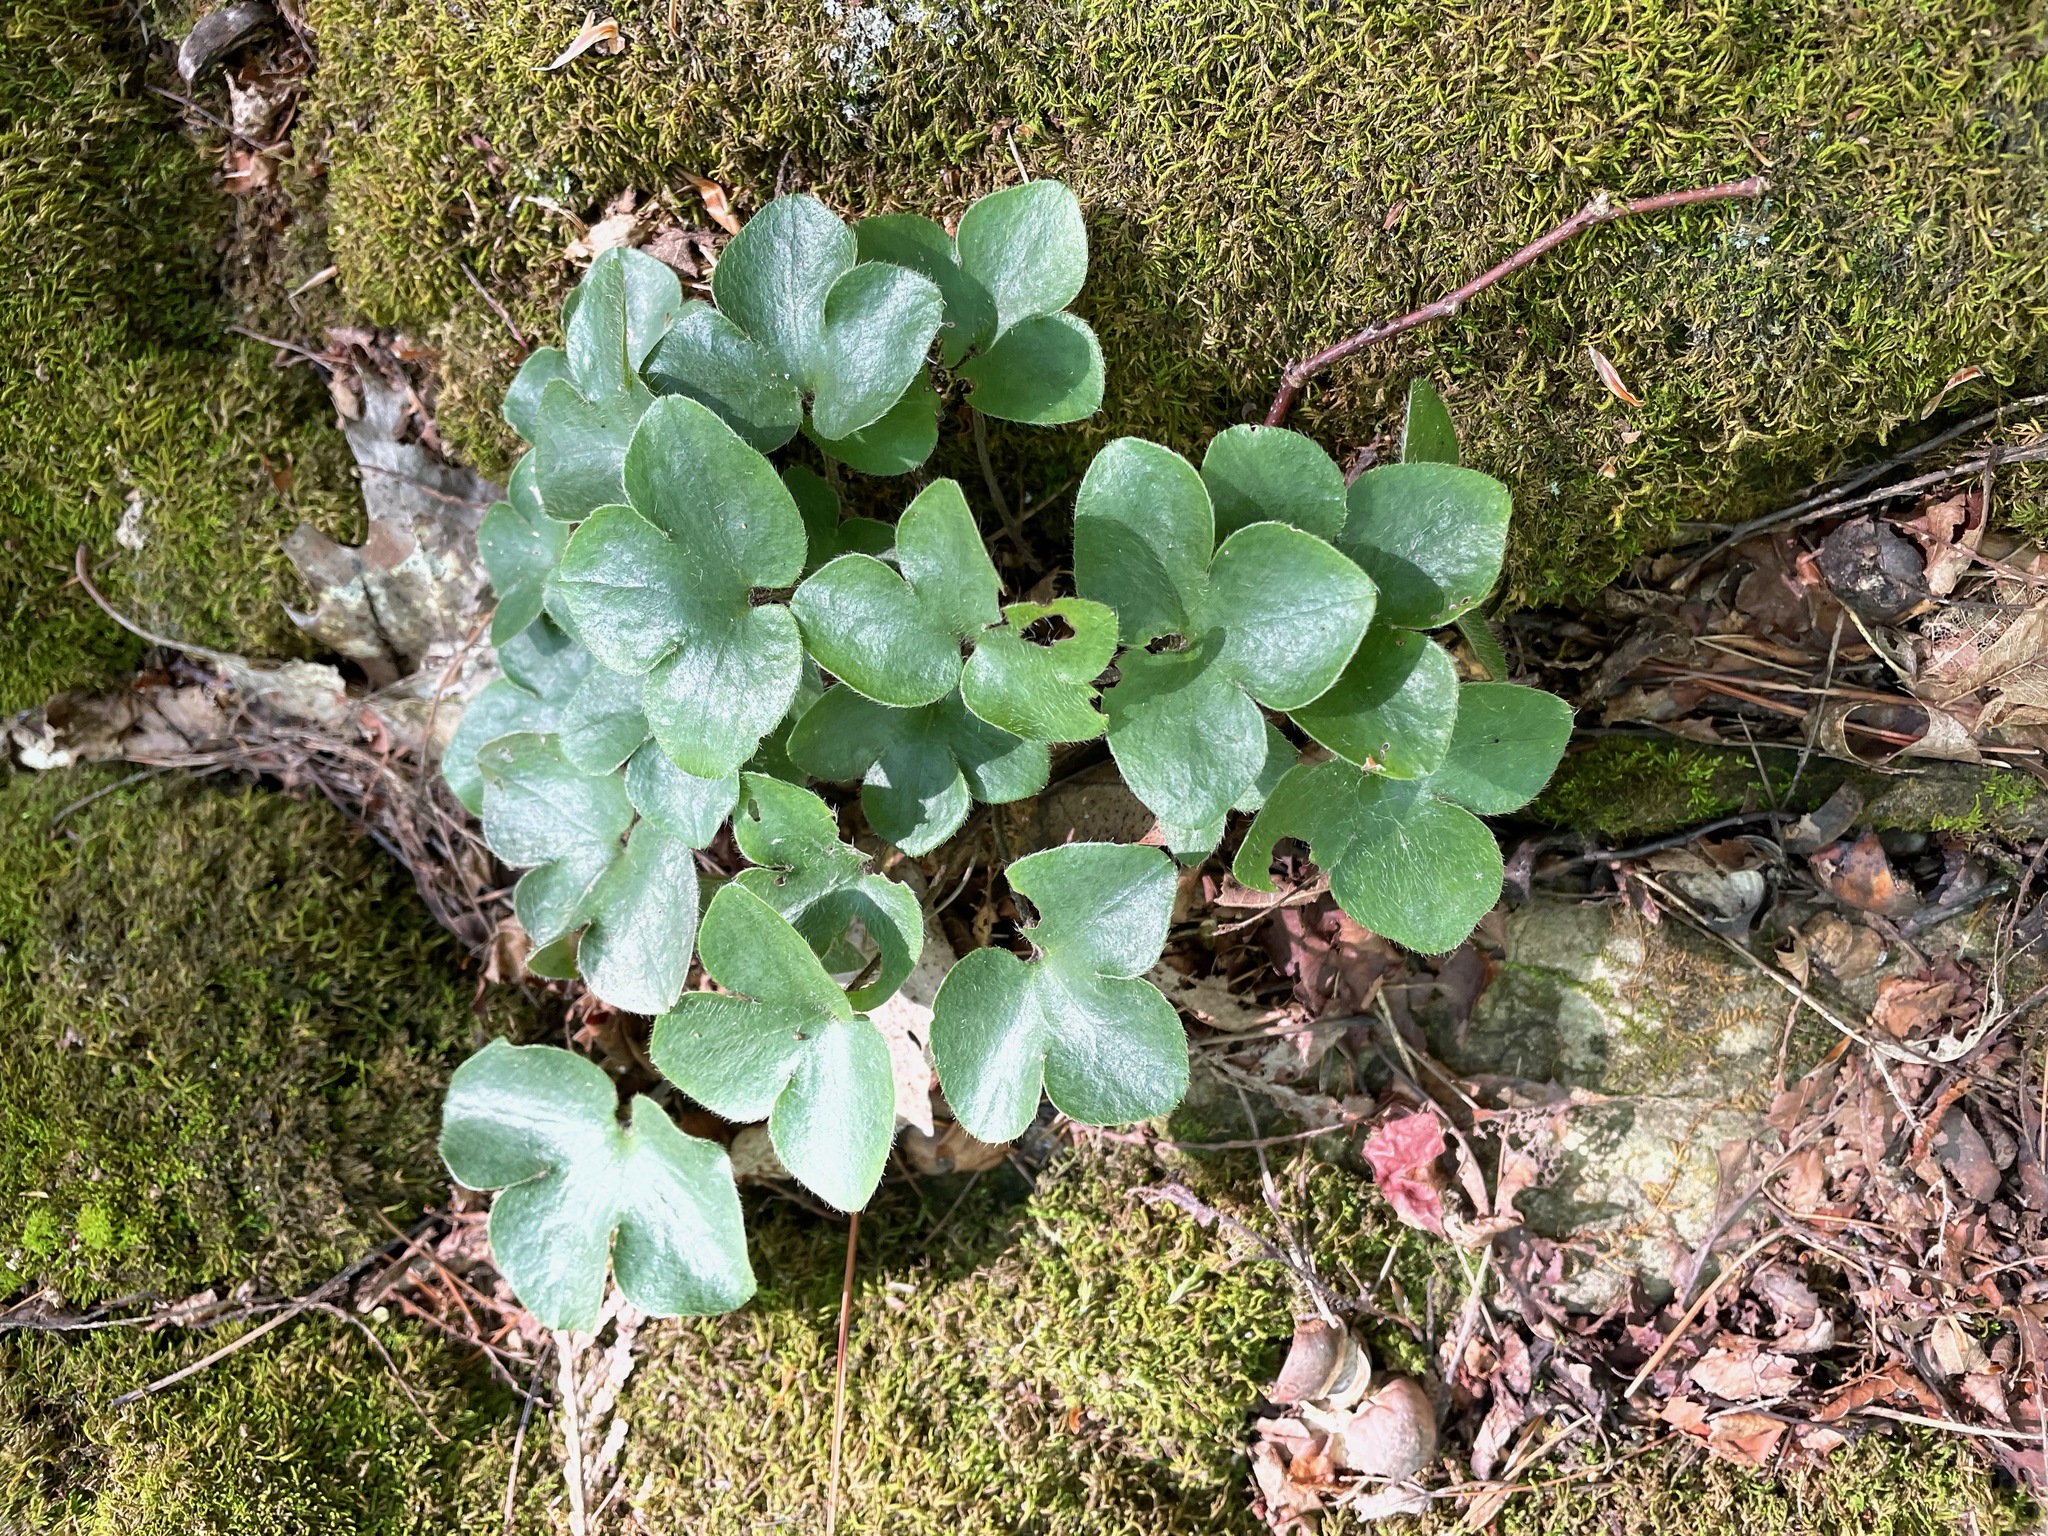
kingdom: Plantae
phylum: Tracheophyta
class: Magnoliopsida
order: Ranunculales
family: Ranunculaceae
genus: Hepatica
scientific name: Hepatica americana
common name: American hepatica
